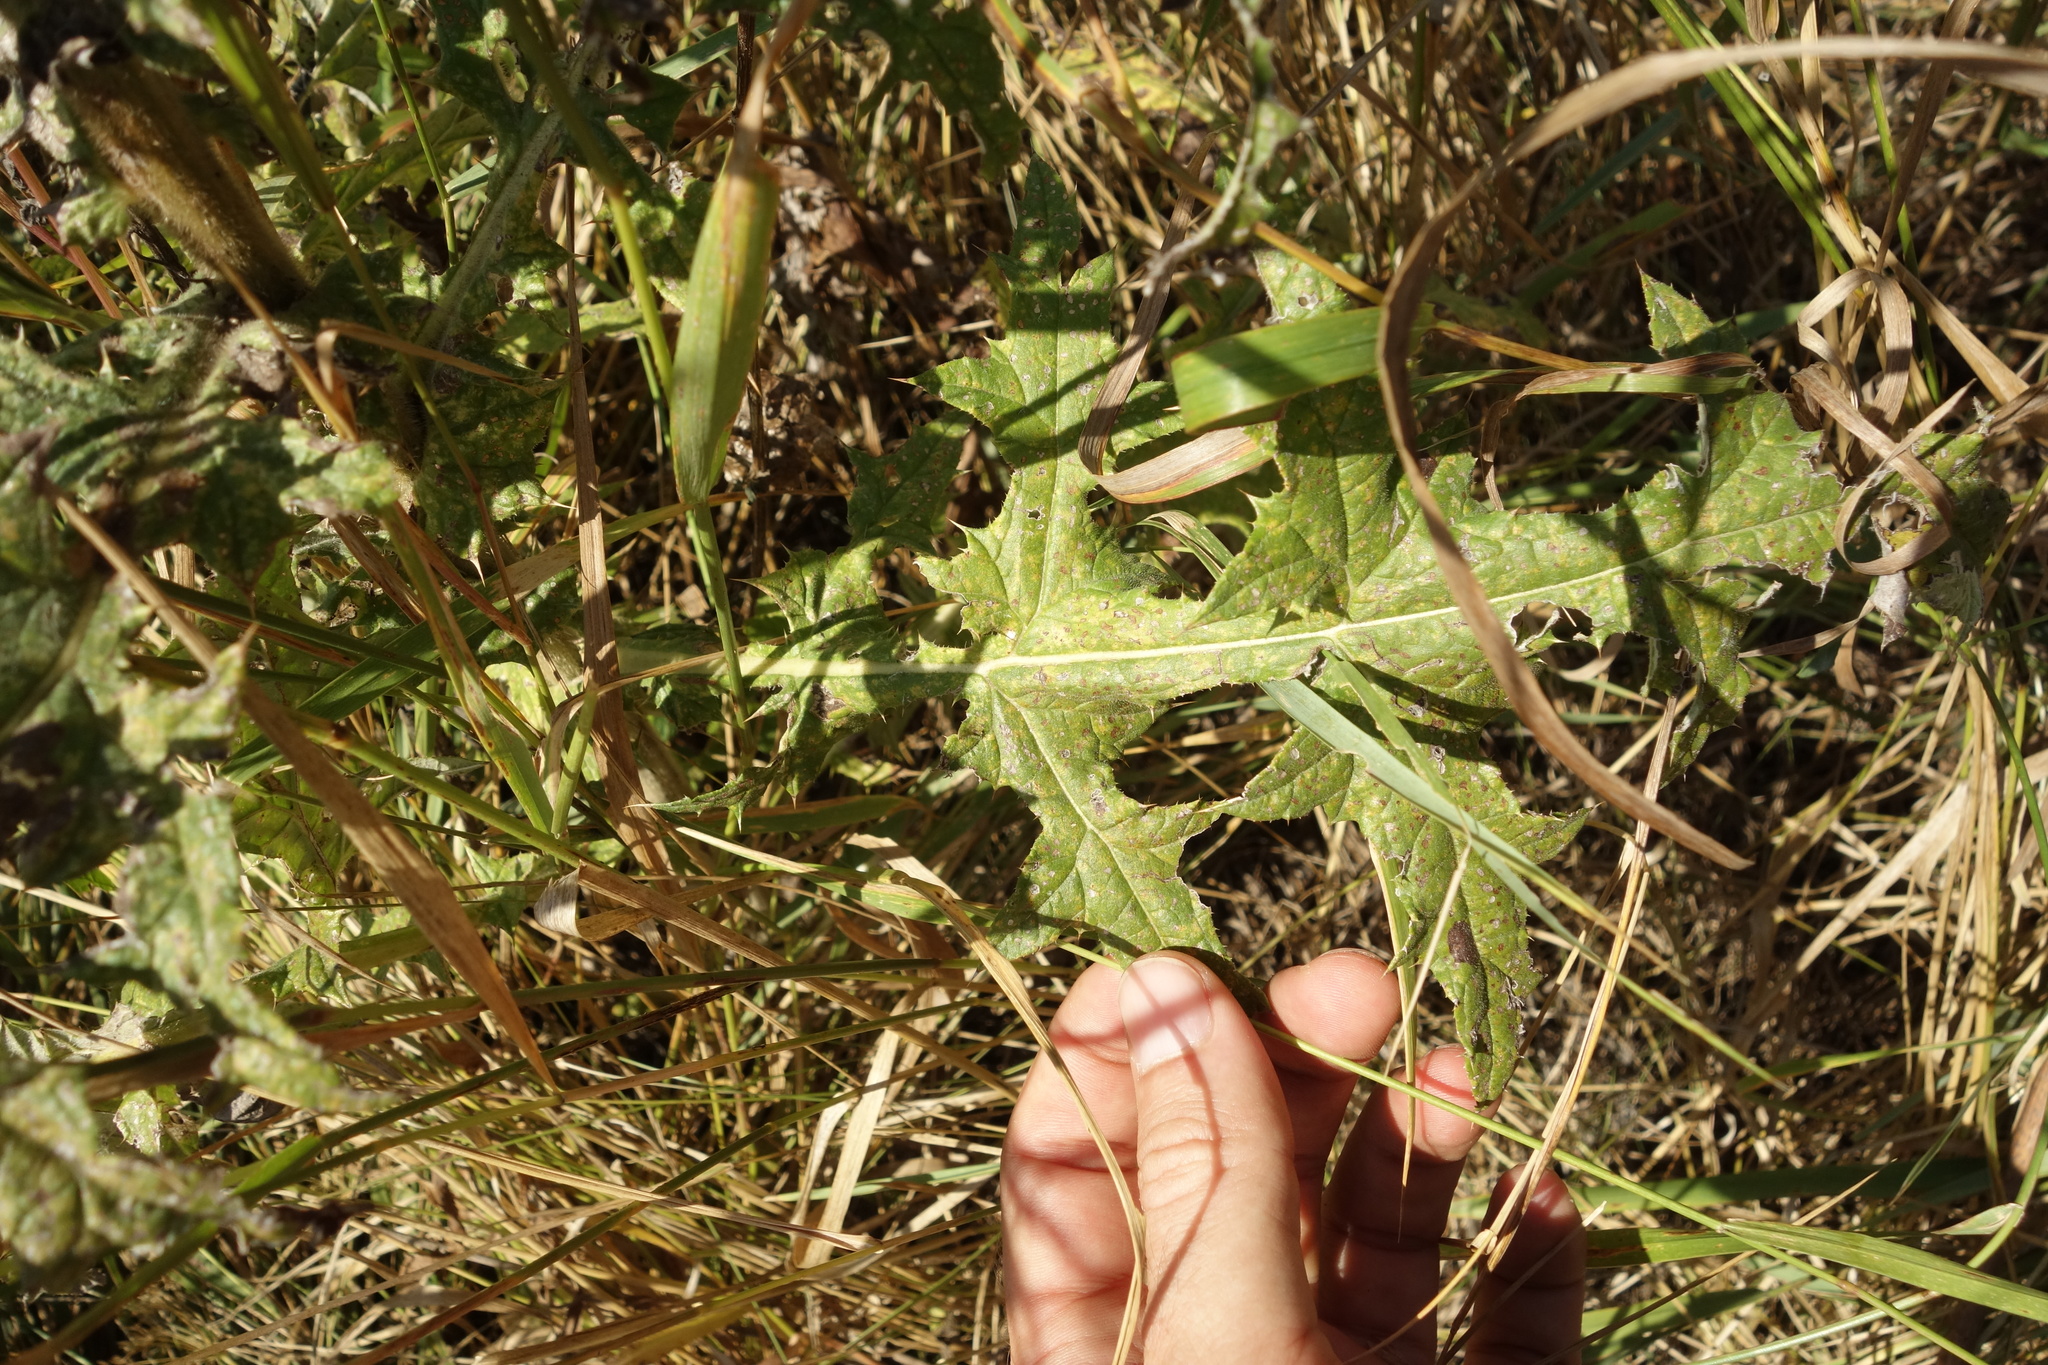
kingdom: Plantae
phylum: Tracheophyta
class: Magnoliopsida
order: Asterales
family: Asteraceae
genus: Echinops
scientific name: Echinops sphaerocephalus
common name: Glandular globe-thistle
